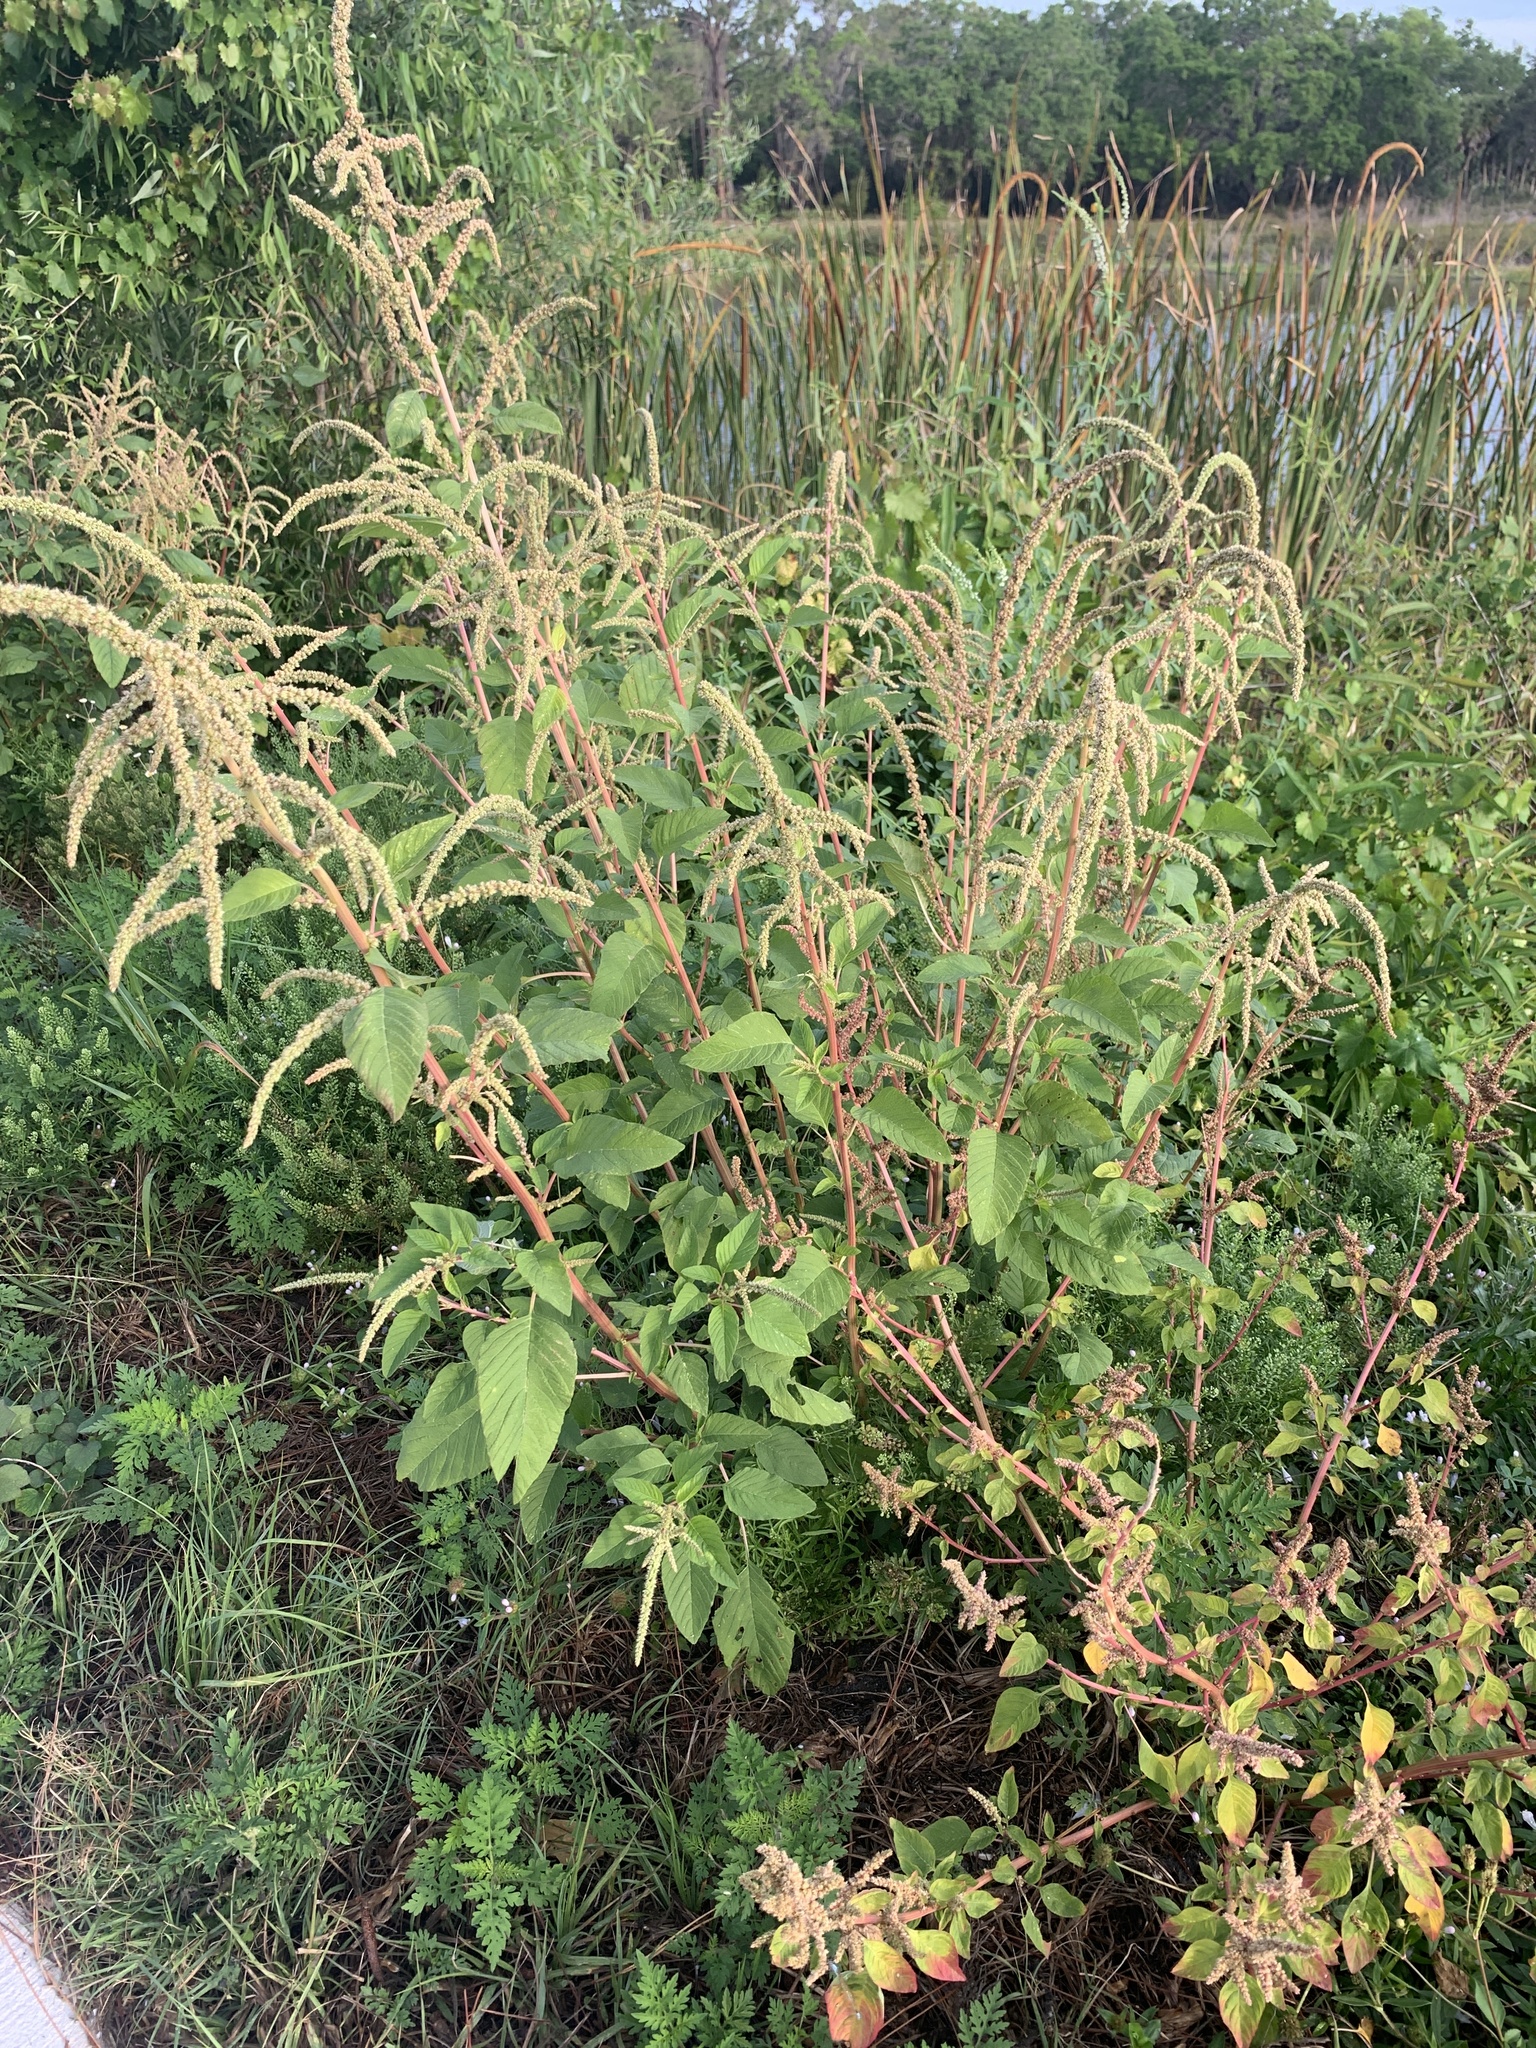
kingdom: Plantae
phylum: Tracheophyta
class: Magnoliopsida
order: Caryophyllales
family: Amaranthaceae
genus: Amaranthus
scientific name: Amaranthus viridis
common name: Slender amaranth
